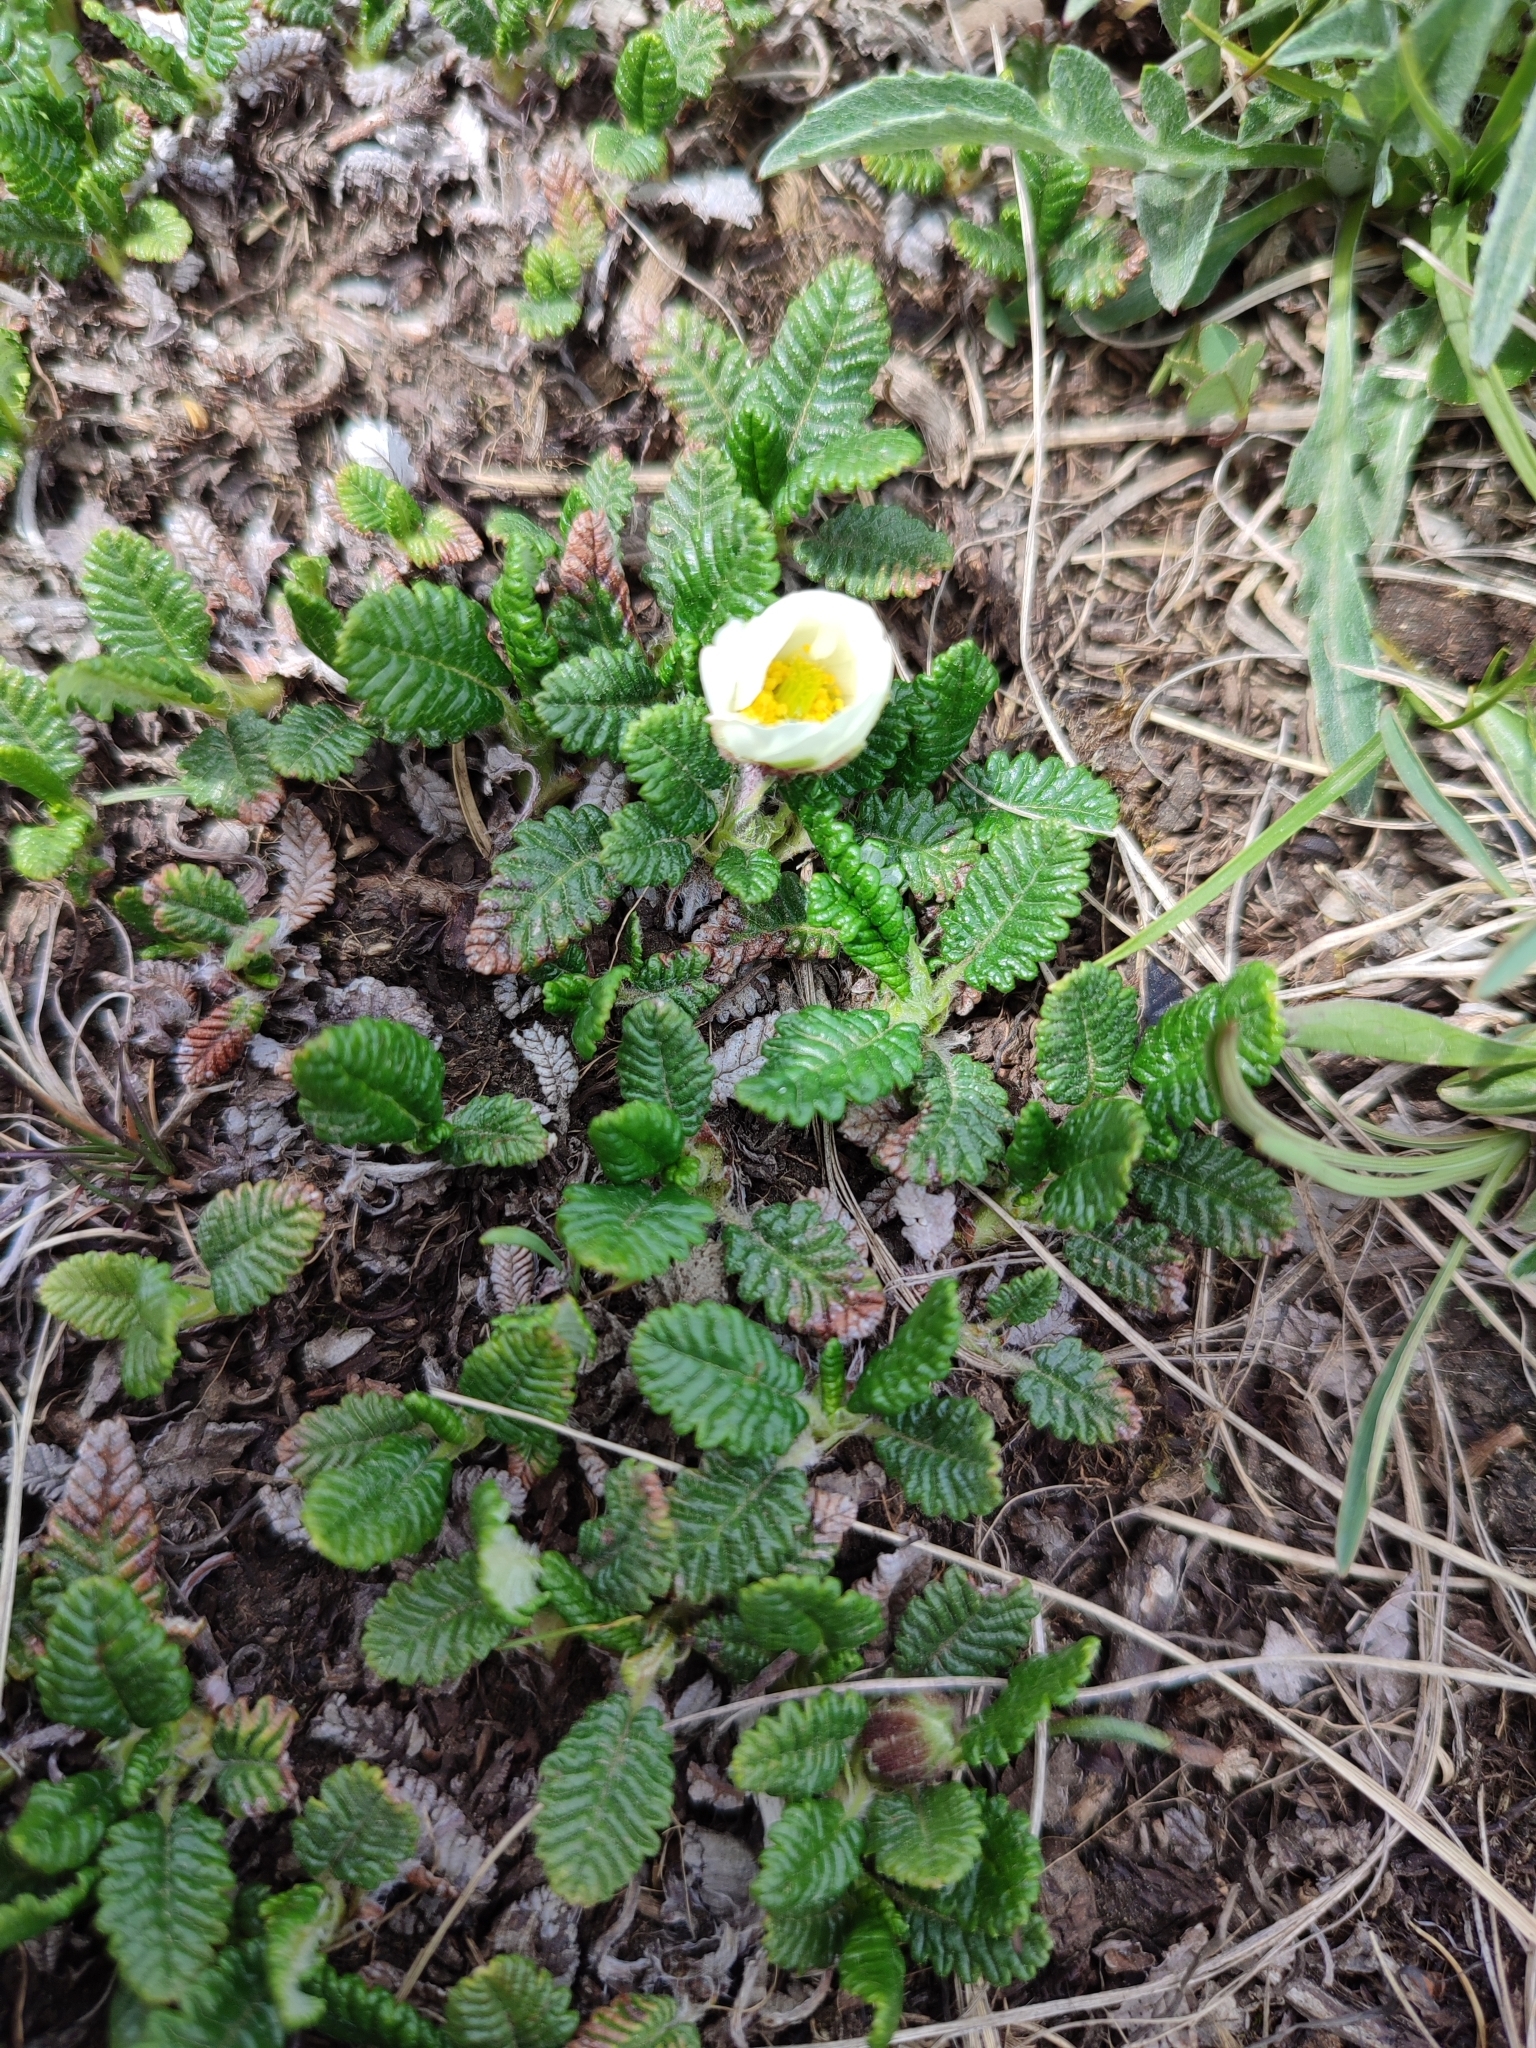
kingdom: Plantae
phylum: Tracheophyta
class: Magnoliopsida
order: Rosales
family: Rosaceae
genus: Dryas
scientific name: Dryas octopetala
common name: Eight-petal mountain-avens
